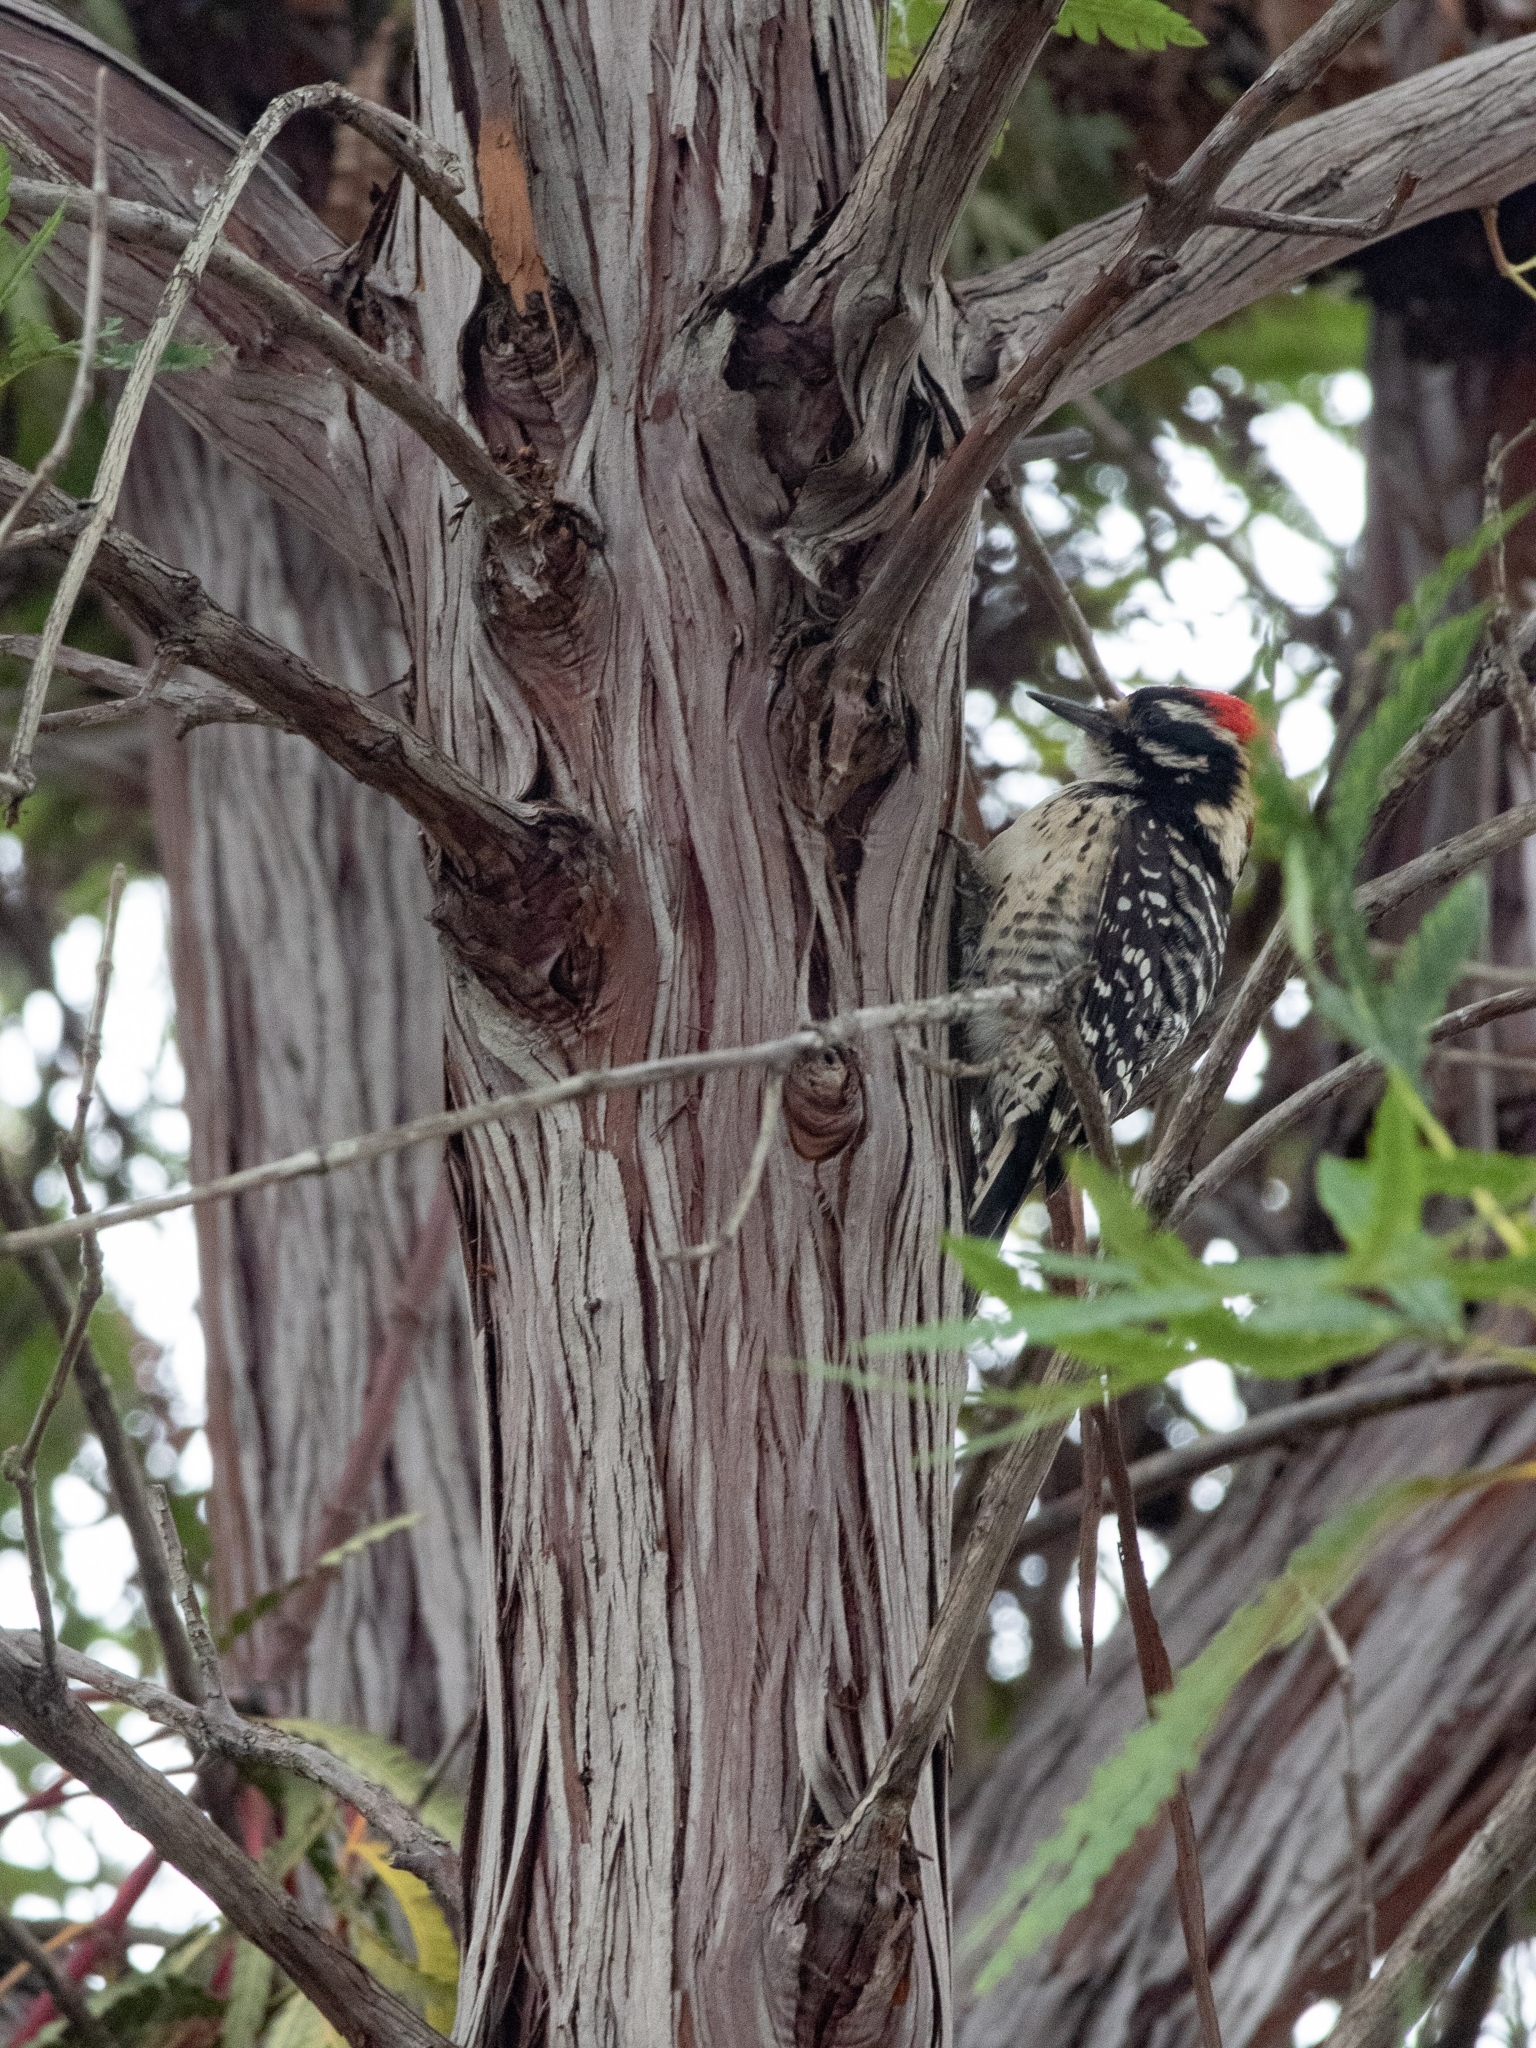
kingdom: Animalia
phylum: Chordata
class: Aves
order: Piciformes
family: Picidae
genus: Dryobates
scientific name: Dryobates nuttallii
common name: Nuttall's woodpecker
